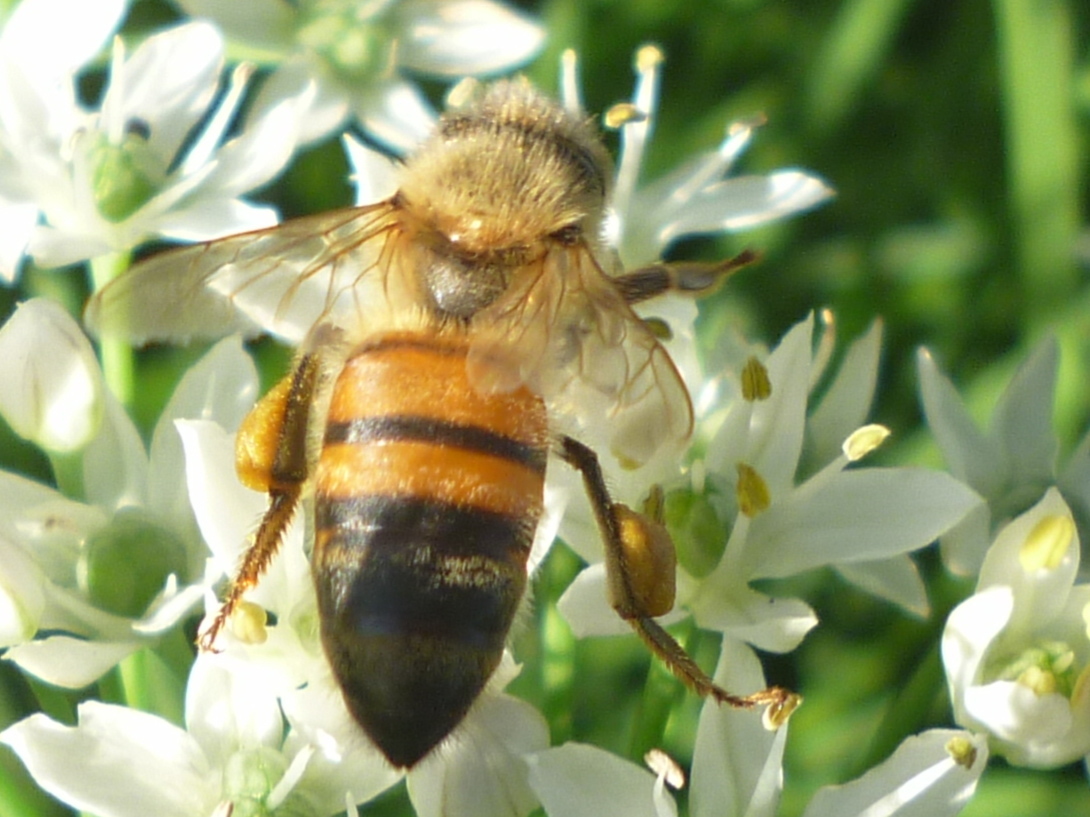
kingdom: Animalia
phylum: Arthropoda
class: Insecta
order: Hymenoptera
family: Apidae
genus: Apis
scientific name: Apis mellifera
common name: Honey bee
